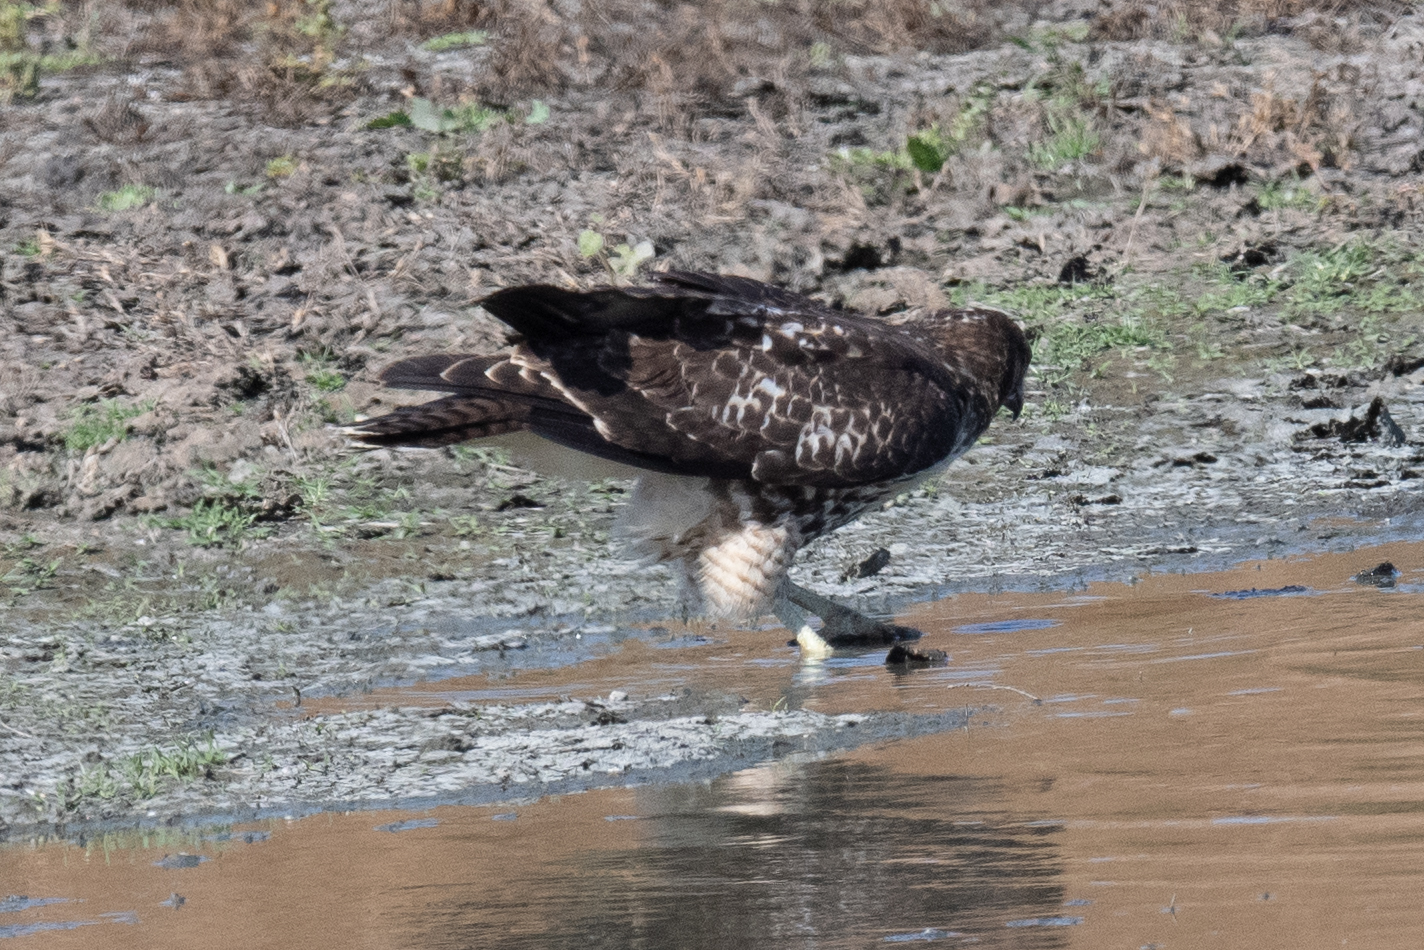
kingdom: Animalia
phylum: Chordata
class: Aves
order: Accipitriformes
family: Accipitridae
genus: Buteo
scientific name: Buteo jamaicensis
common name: Red-tailed hawk
